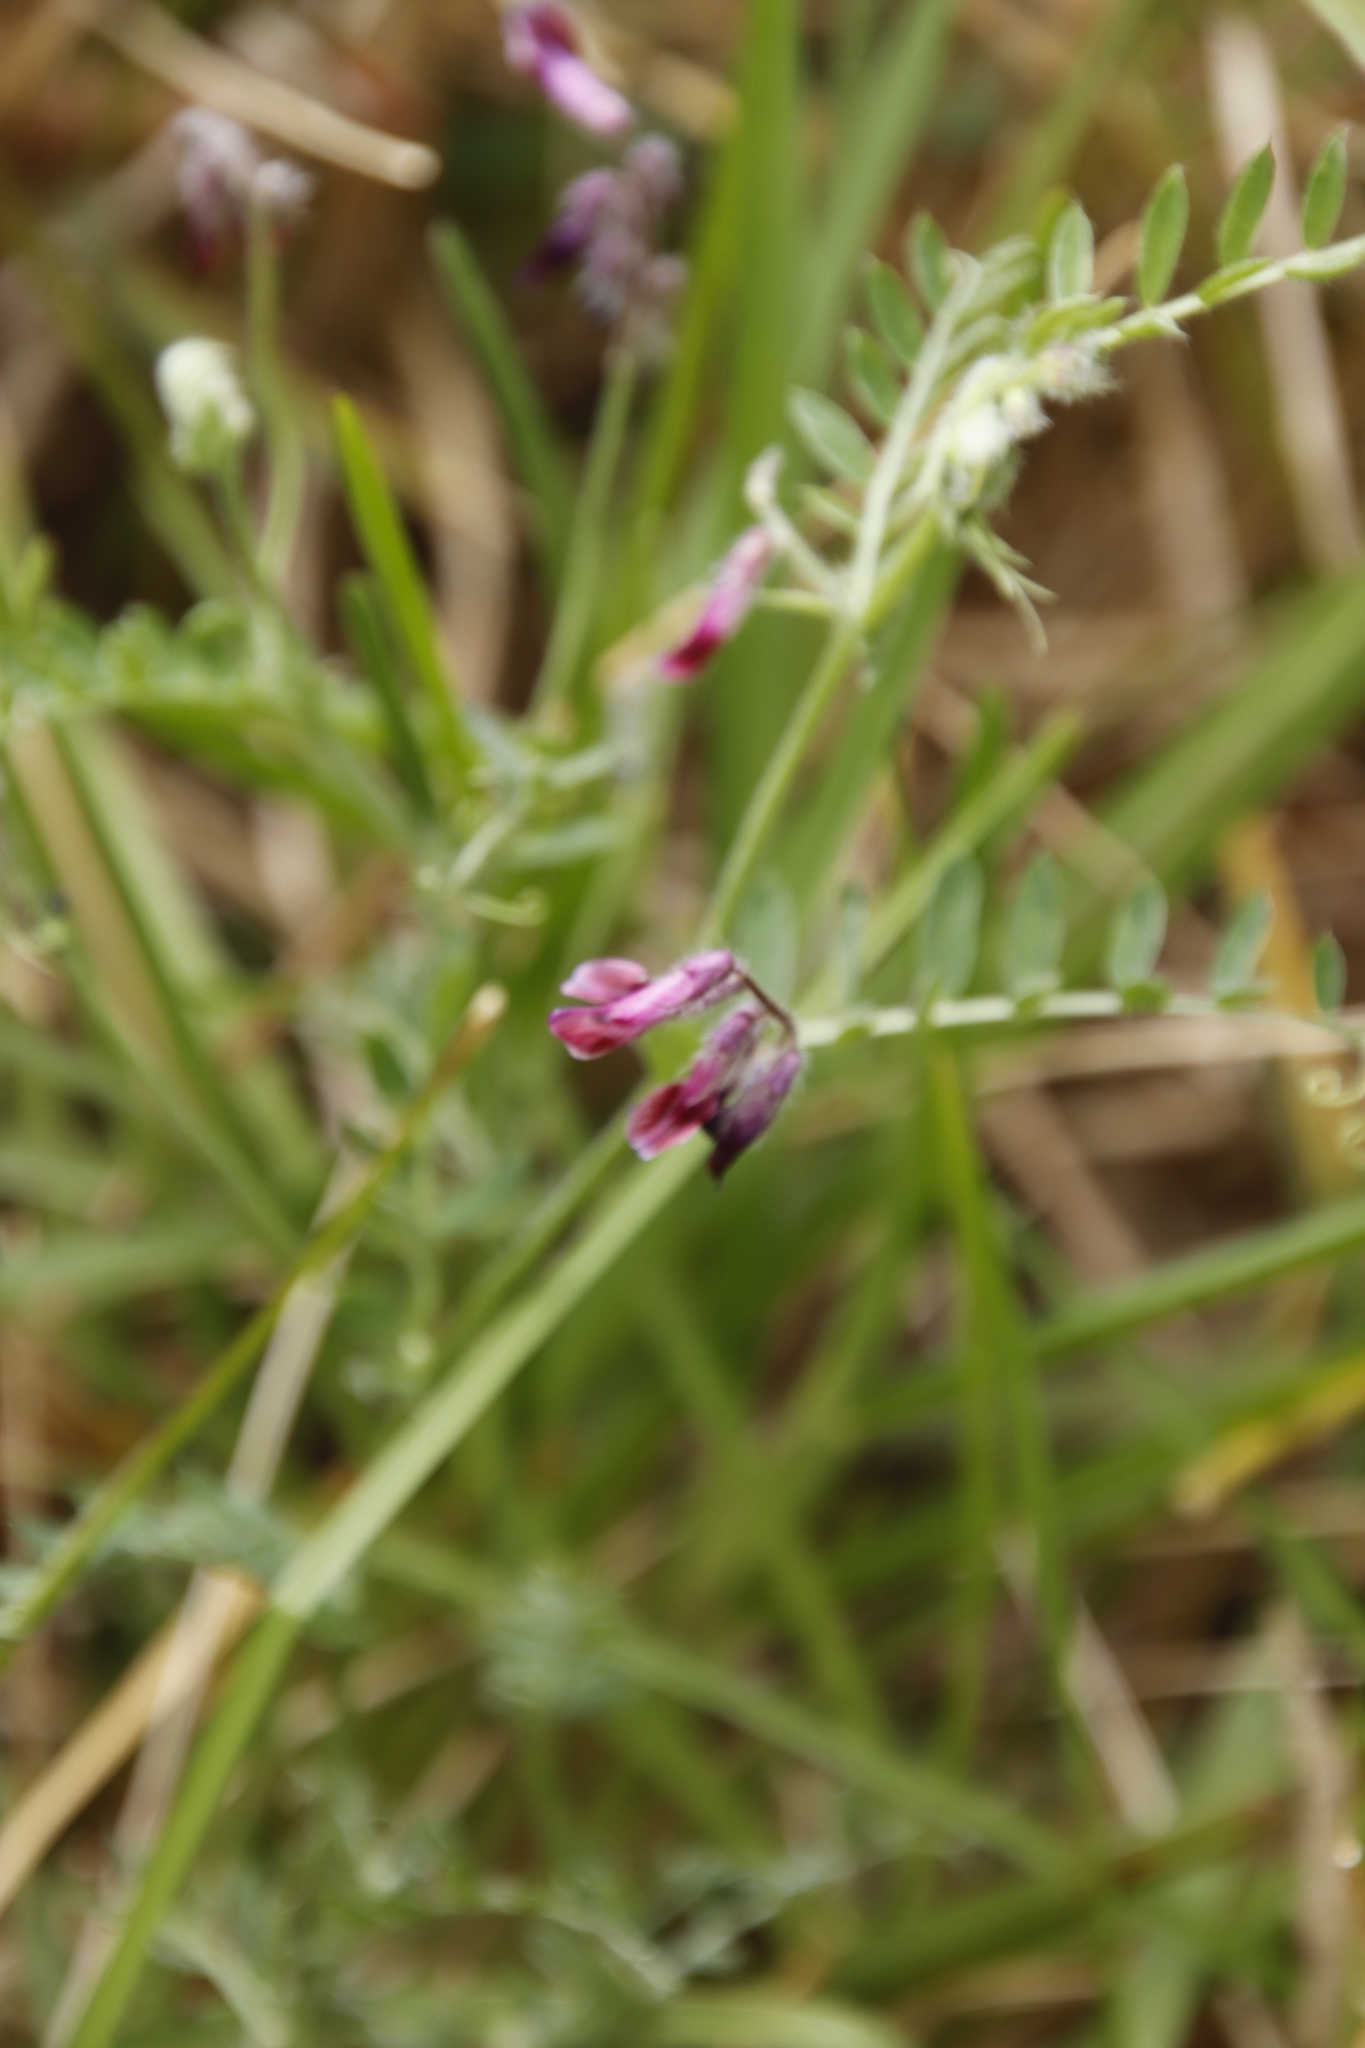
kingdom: Plantae
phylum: Tracheophyta
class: Magnoliopsida
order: Fabales
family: Fabaceae
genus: Vicia
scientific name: Vicia benghalensis
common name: Purple vetch
